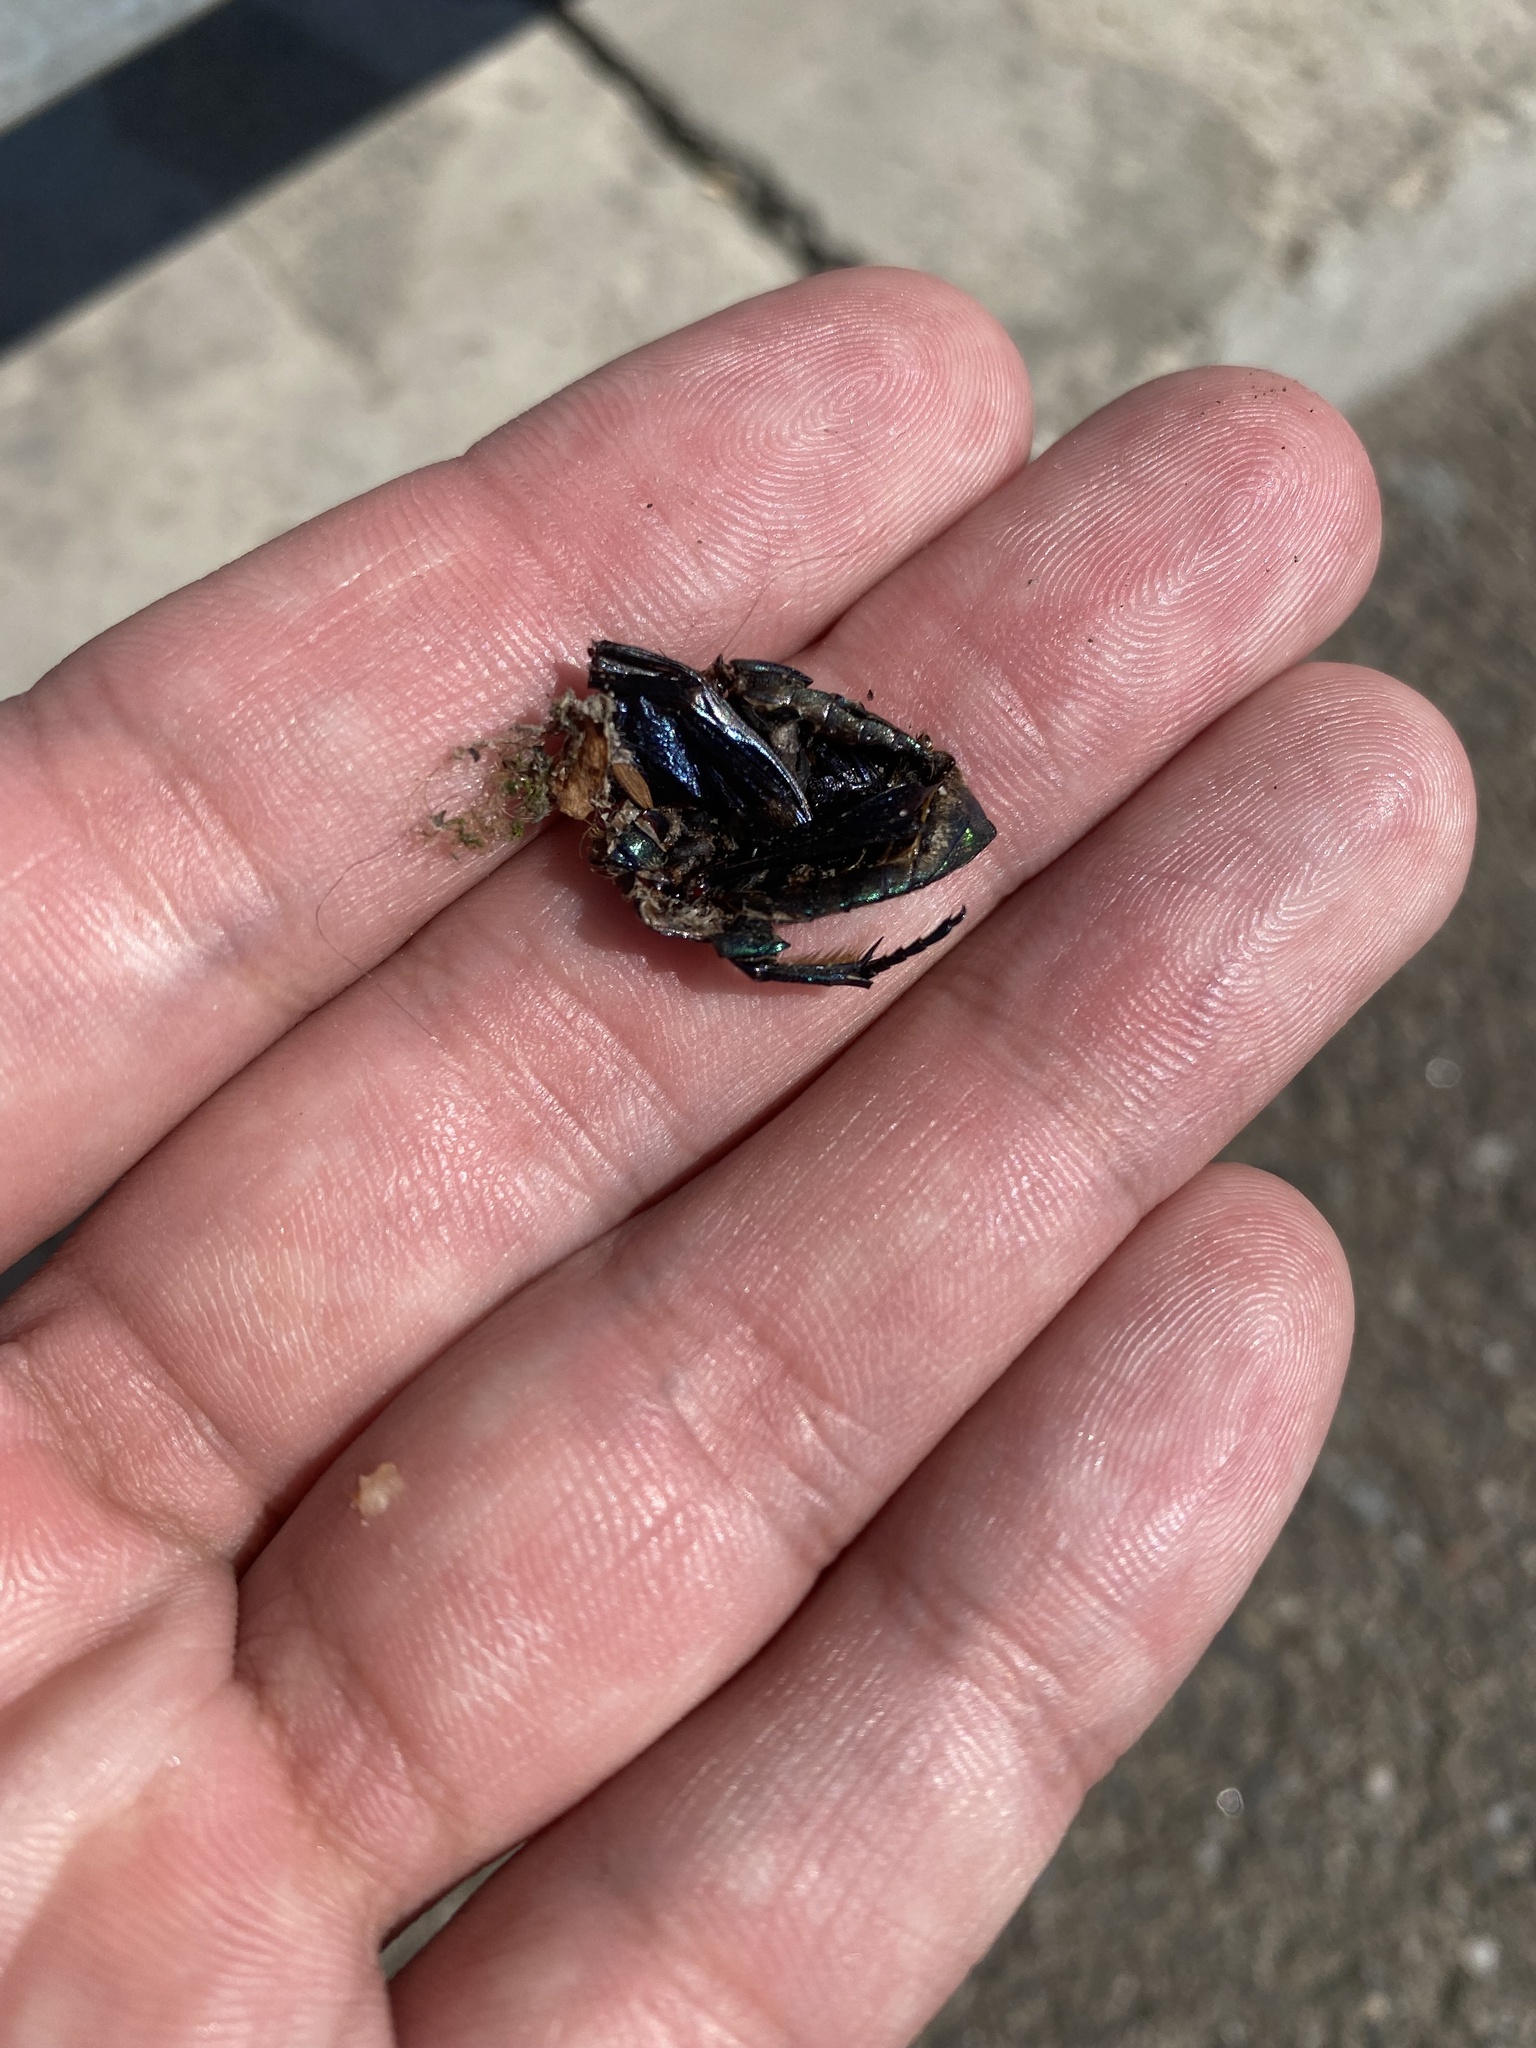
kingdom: Animalia
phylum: Arthropoda
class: Insecta
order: Coleoptera
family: Scarabaeidae
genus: Protaetia
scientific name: Protaetia speciosa
